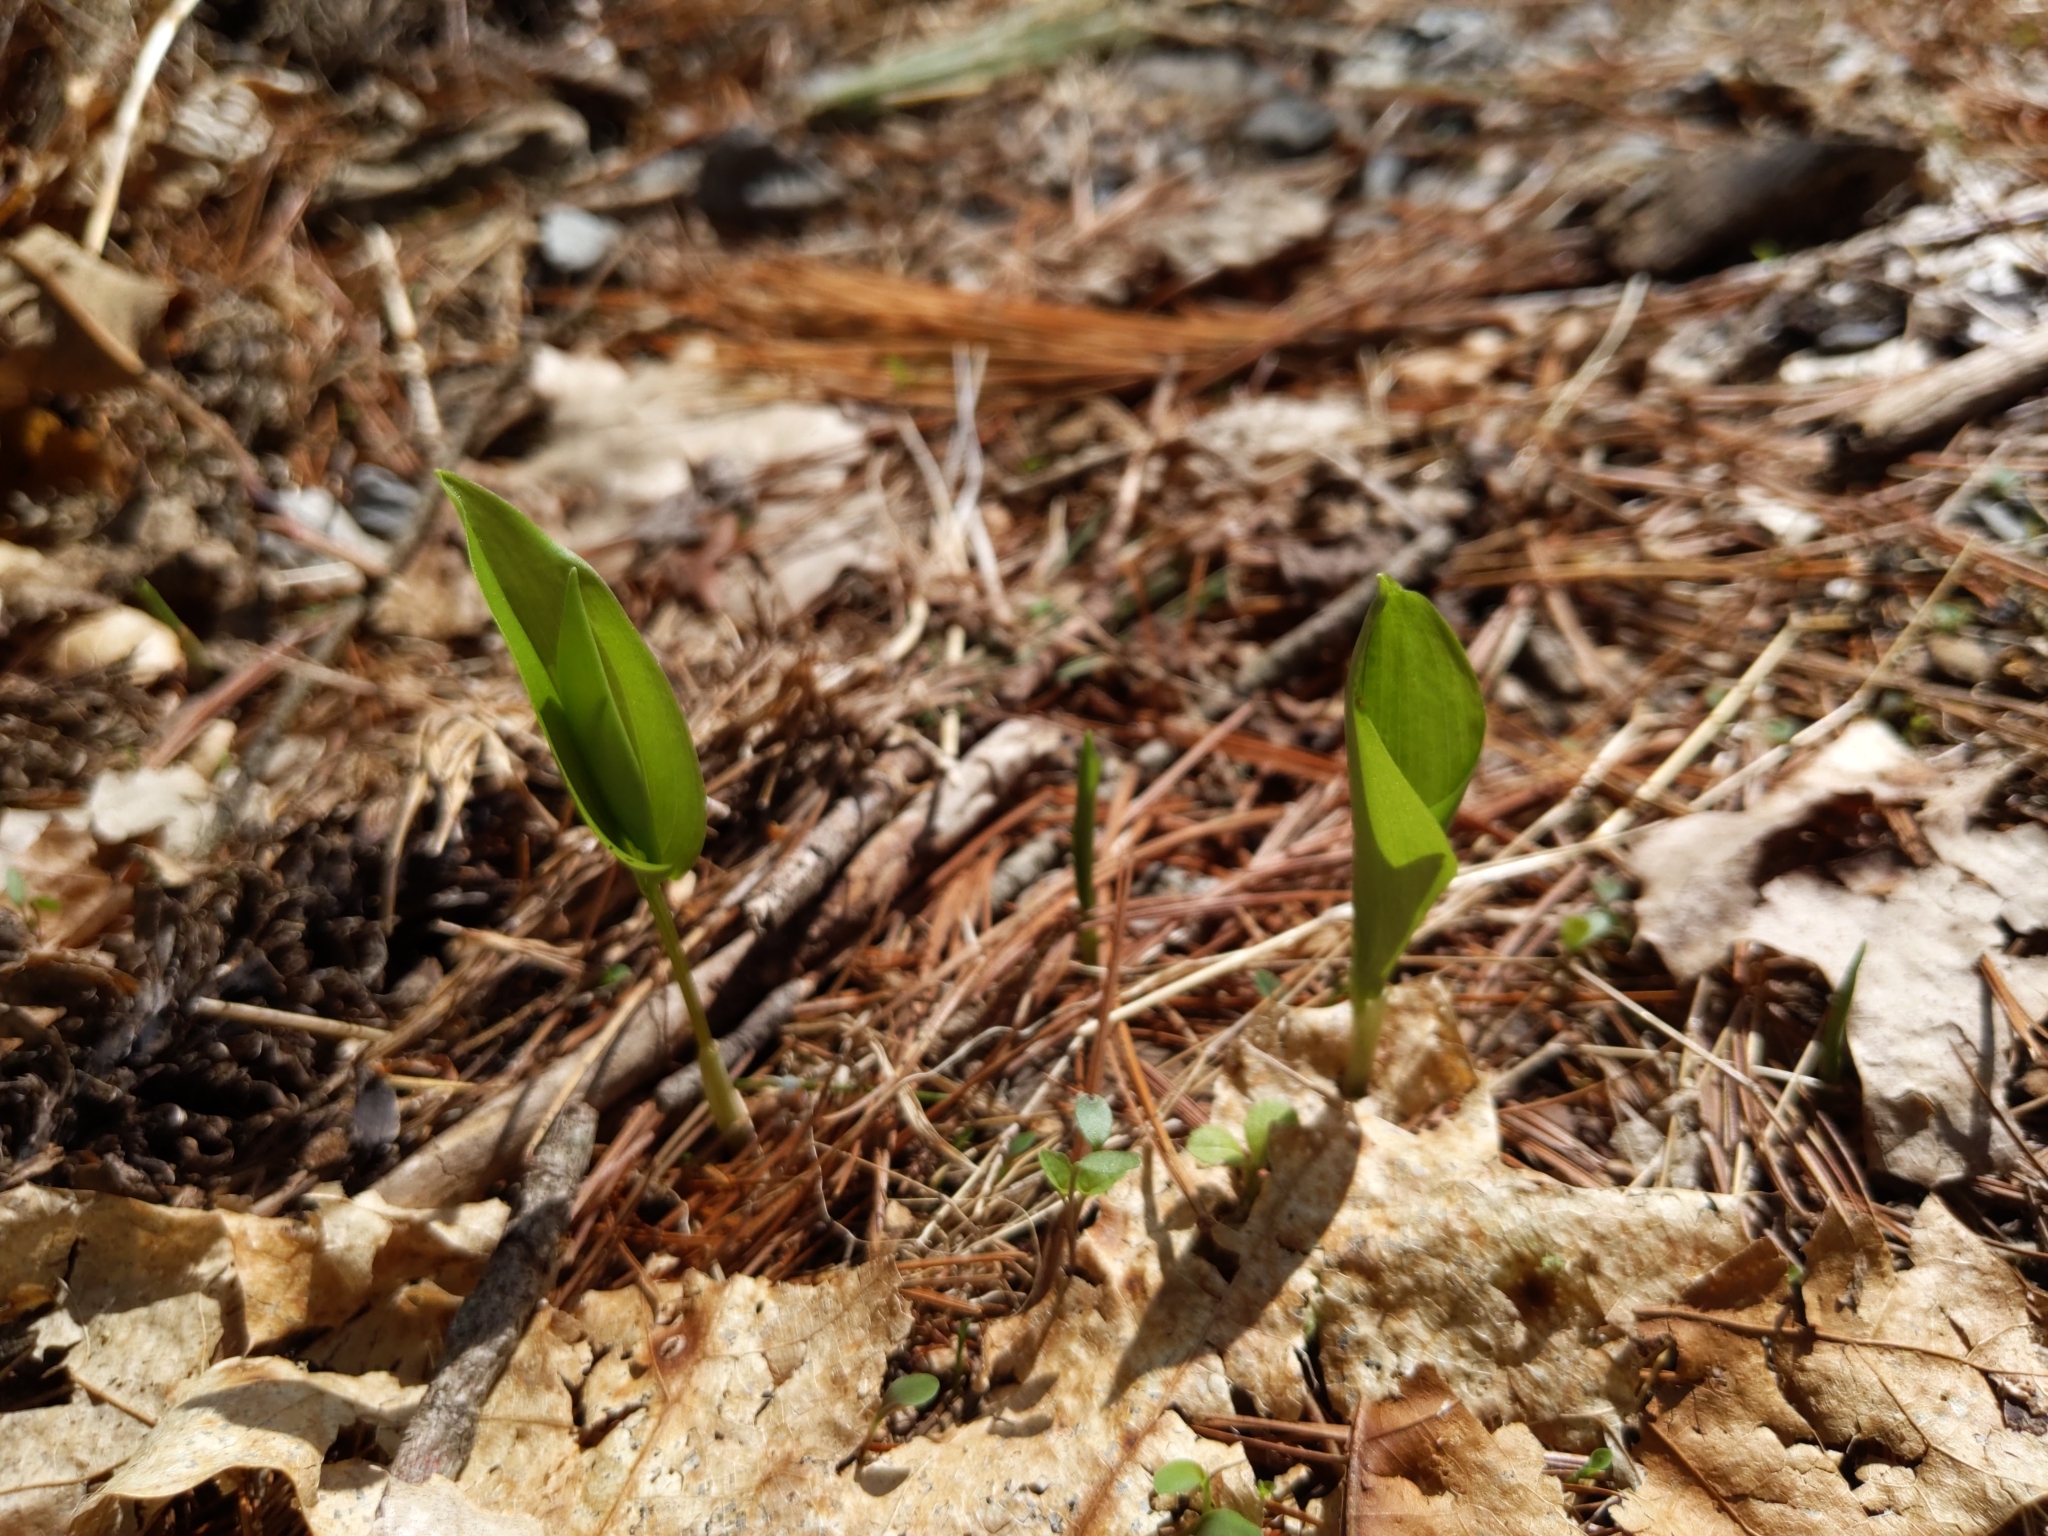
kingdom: Plantae
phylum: Tracheophyta
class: Liliopsida
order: Asparagales
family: Asparagaceae
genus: Maianthemum
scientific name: Maianthemum canadense
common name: False lily-of-the-valley
